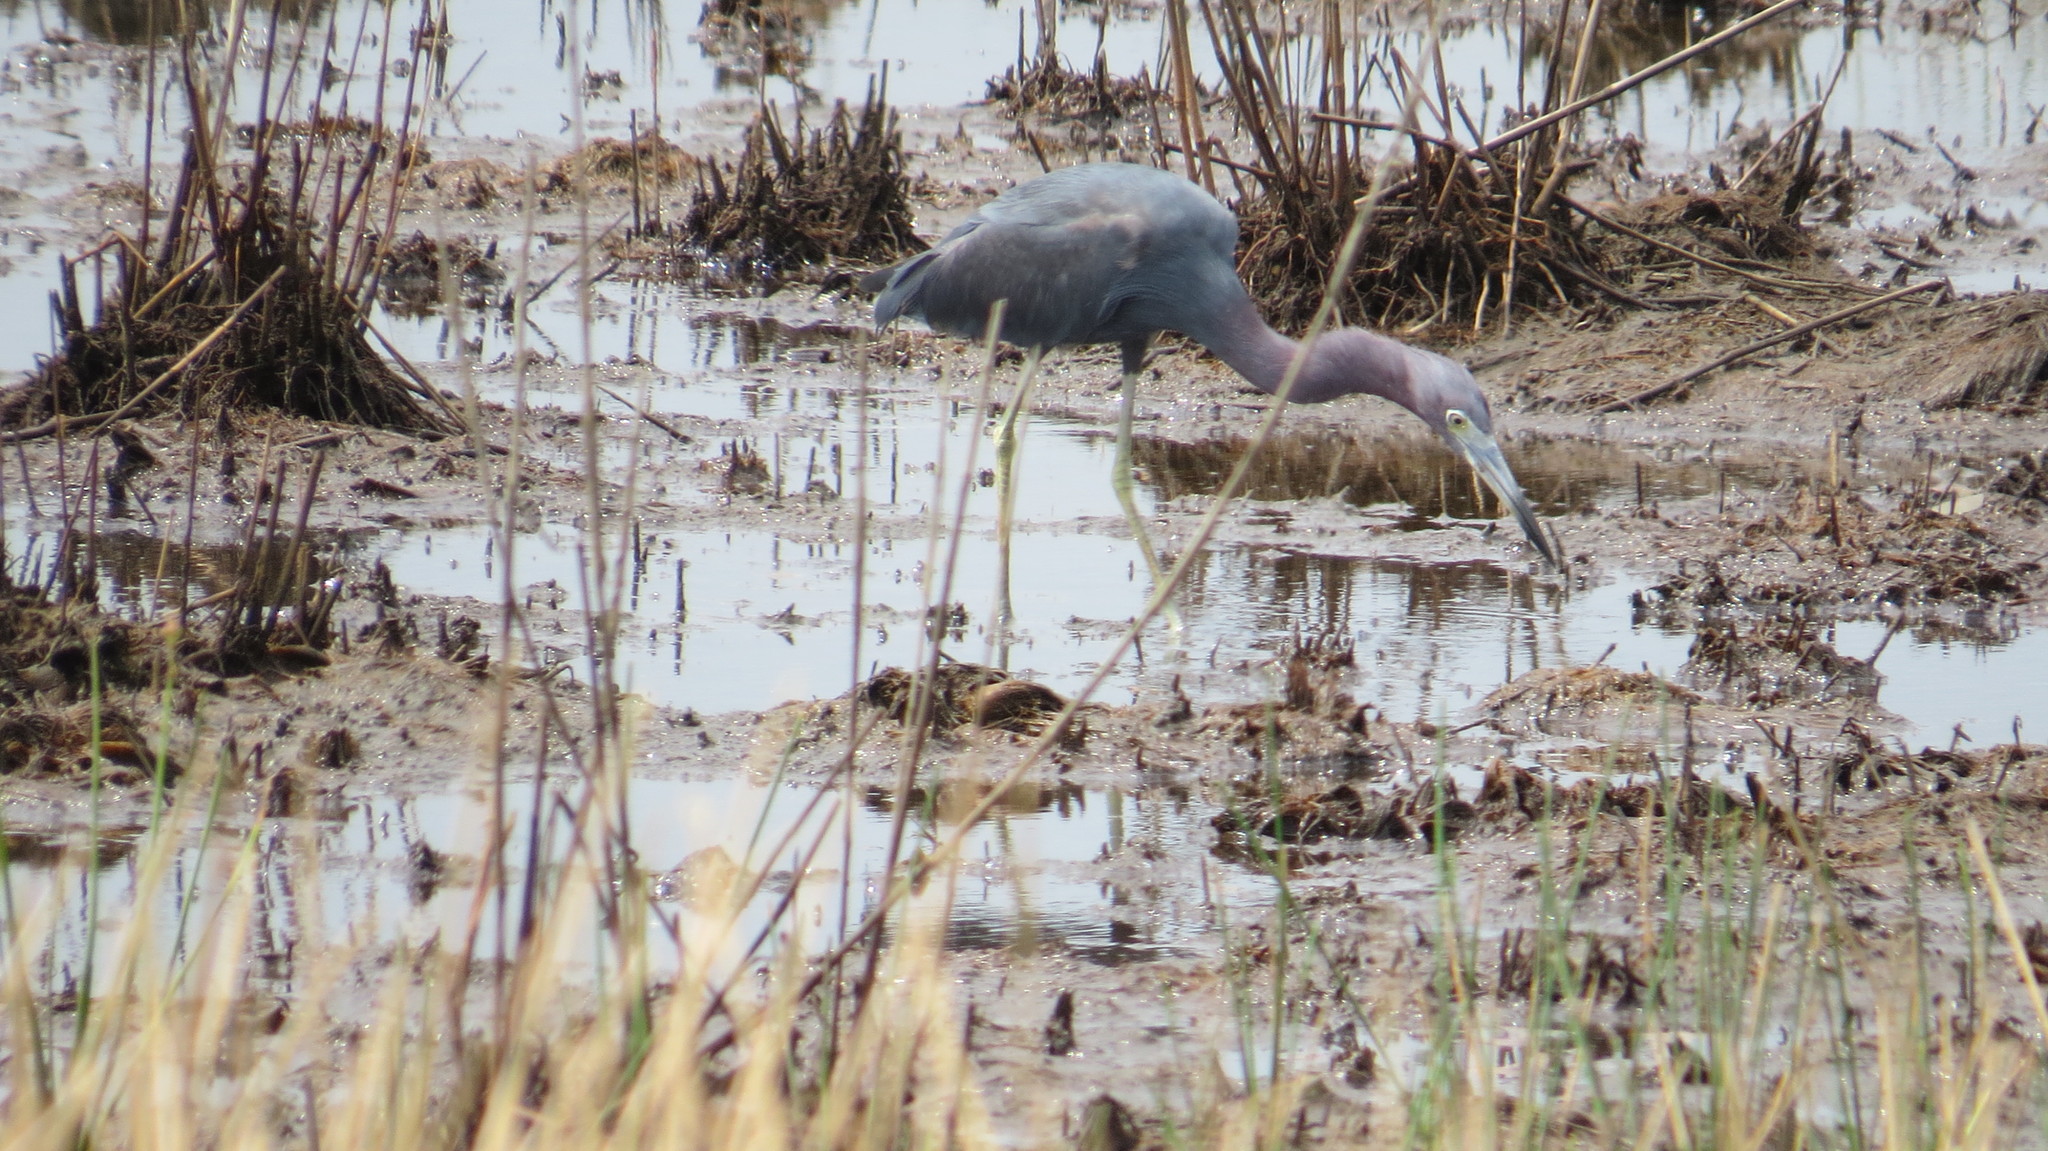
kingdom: Animalia
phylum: Chordata
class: Aves
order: Pelecaniformes
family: Ardeidae
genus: Egretta
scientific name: Egretta caerulea
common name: Little blue heron
